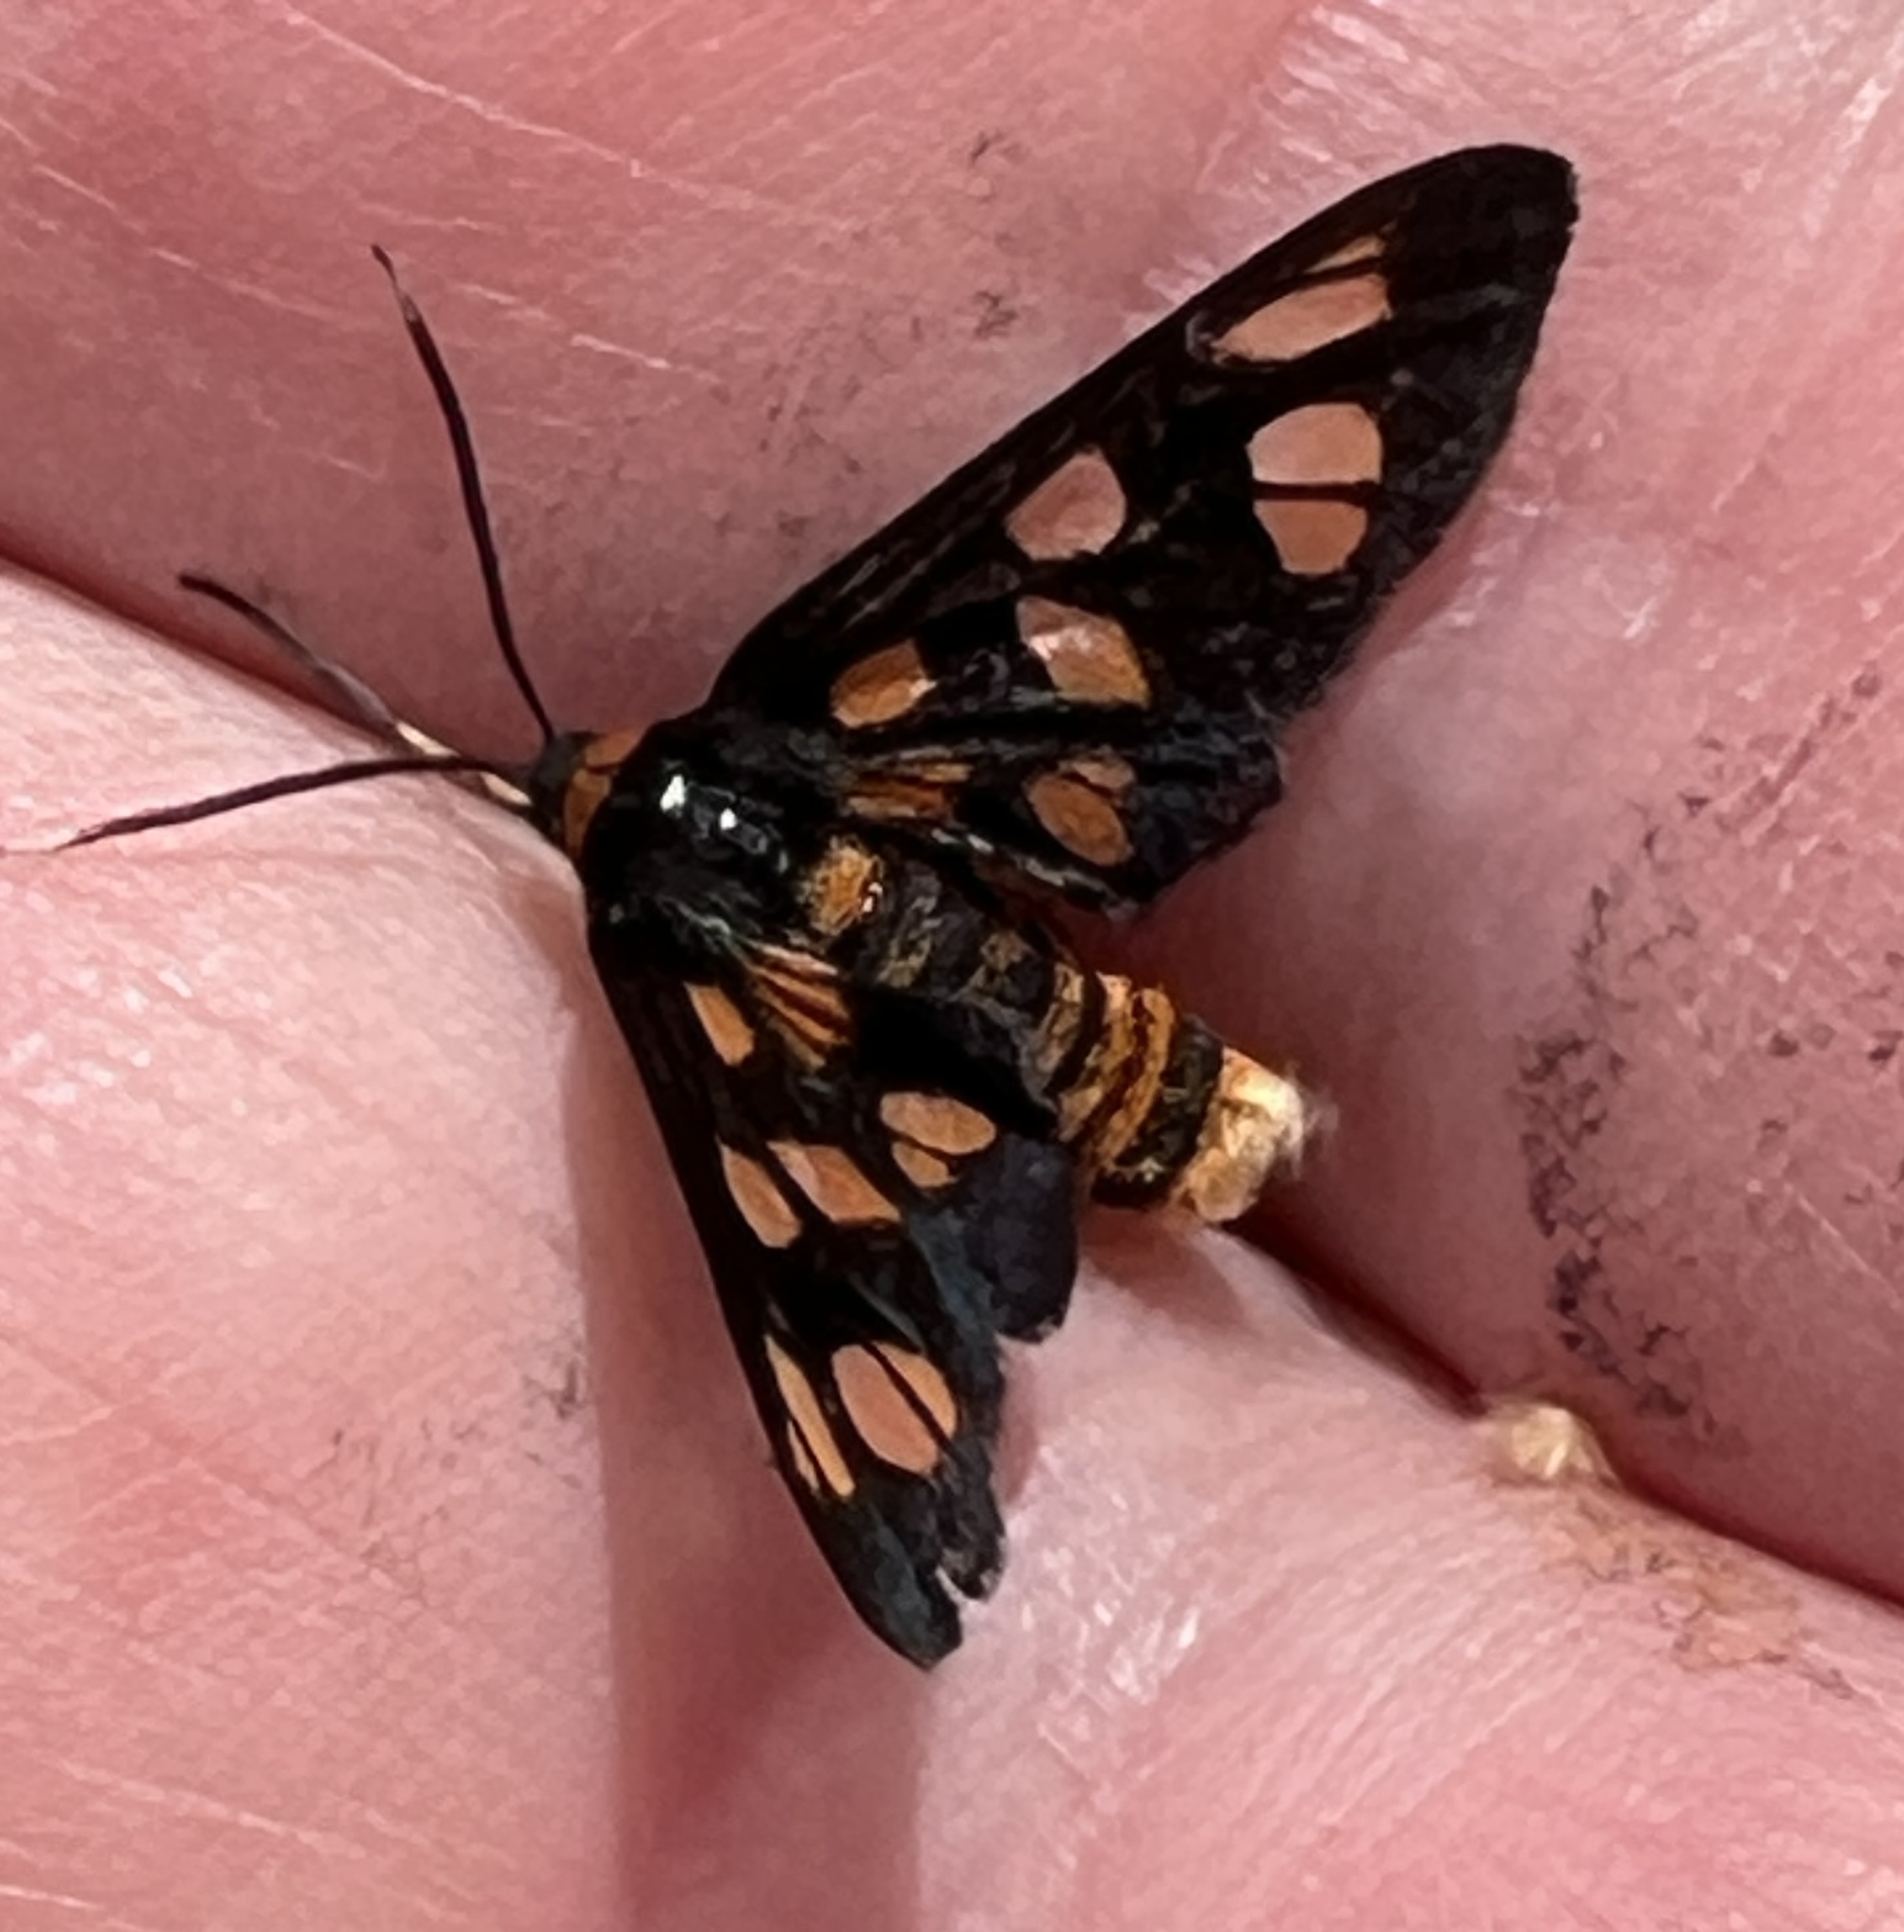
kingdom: Animalia
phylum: Arthropoda
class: Insecta
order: Lepidoptera
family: Erebidae
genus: Amata
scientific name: Amata nigriceps
